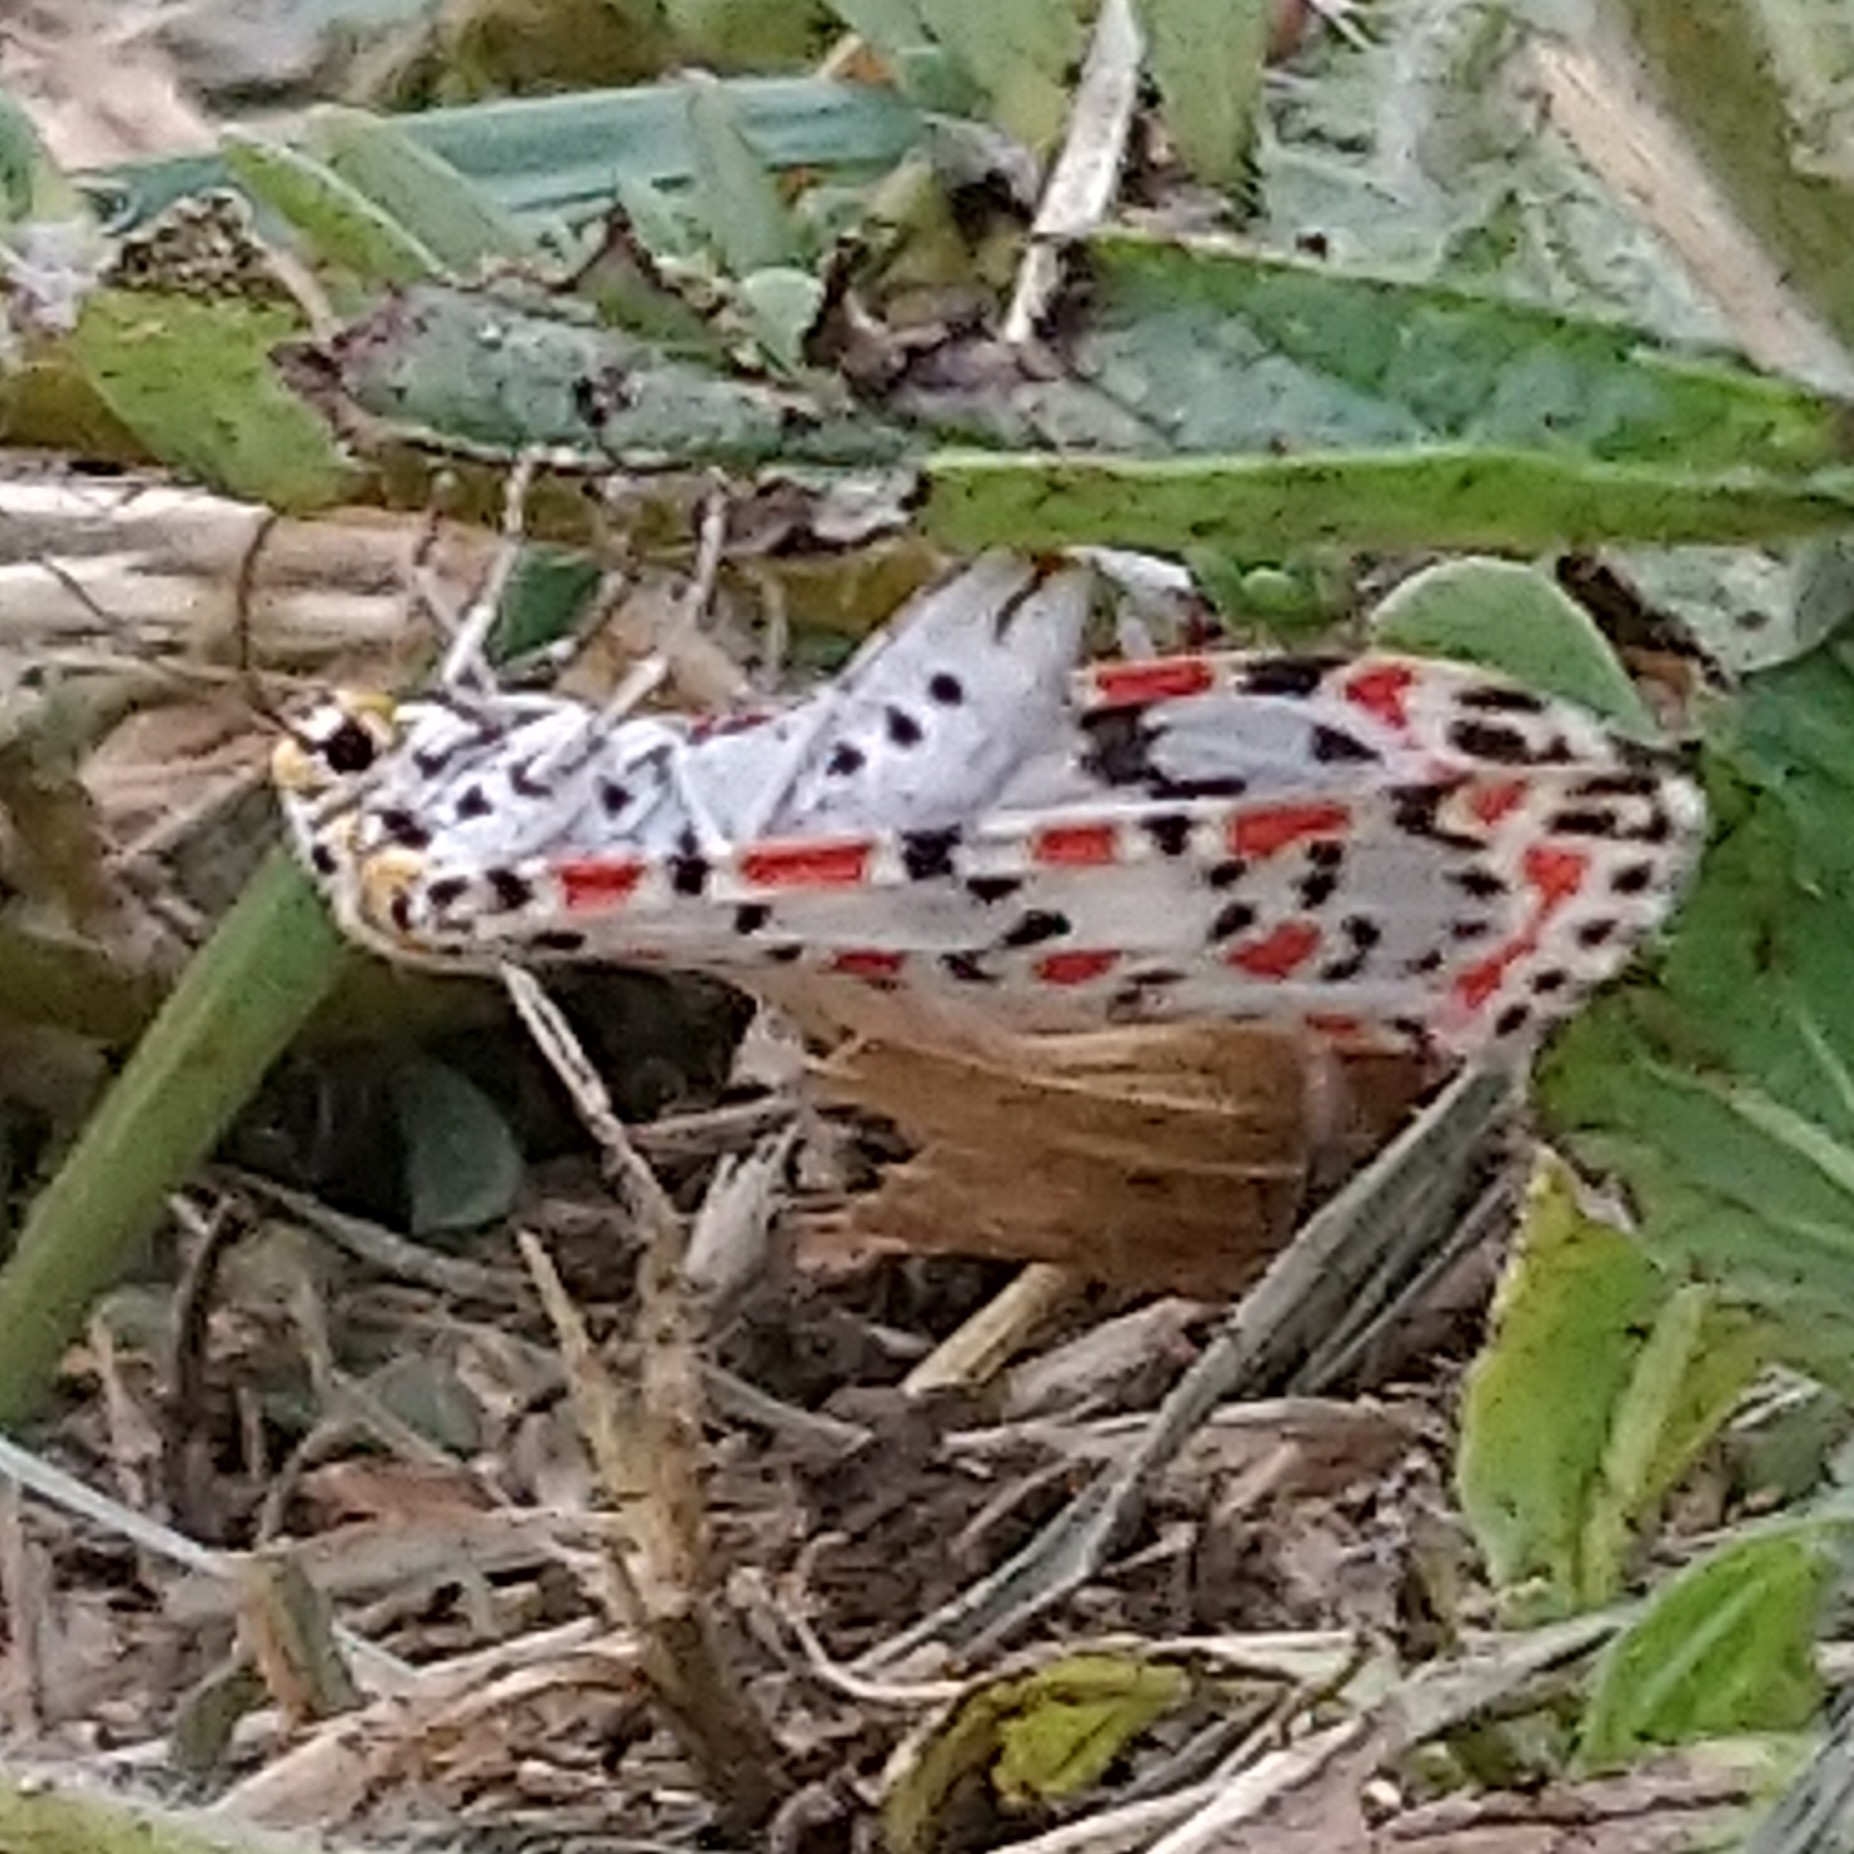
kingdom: Animalia
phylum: Arthropoda
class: Insecta
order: Lepidoptera
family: Erebidae
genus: Utetheisa
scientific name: Utetheisa pulchella
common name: Crimson speckled
